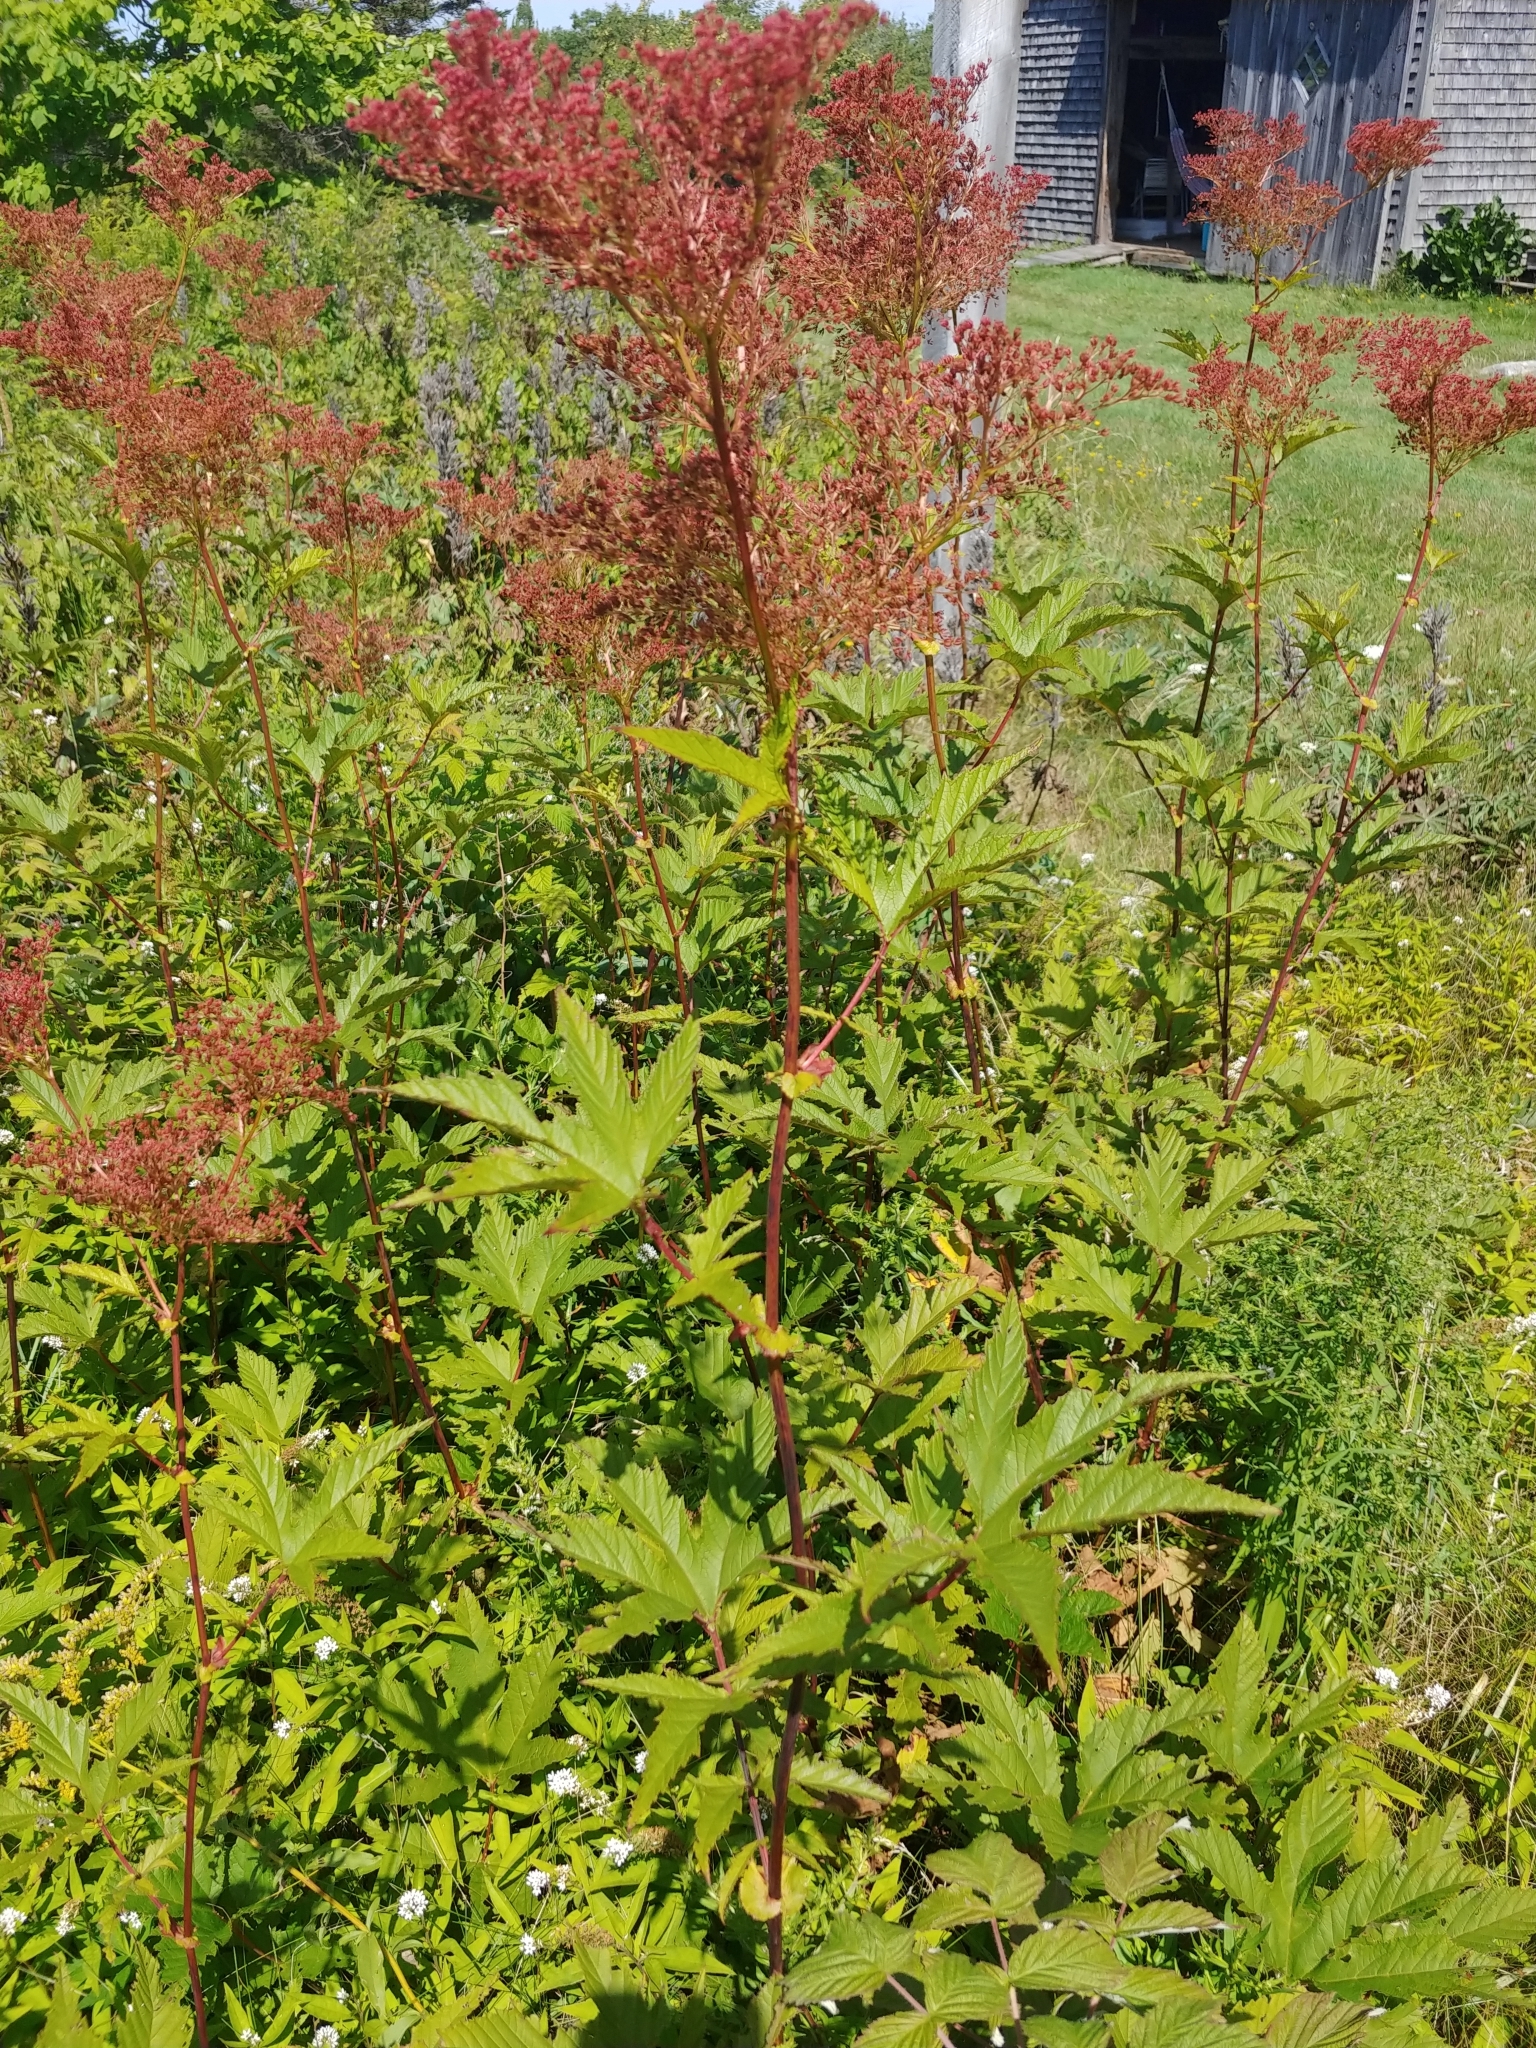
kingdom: Plantae
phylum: Tracheophyta
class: Magnoliopsida
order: Rosales
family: Rosaceae
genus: Filipendula
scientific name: Filipendula rubra
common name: Queen-of-the-prairie
